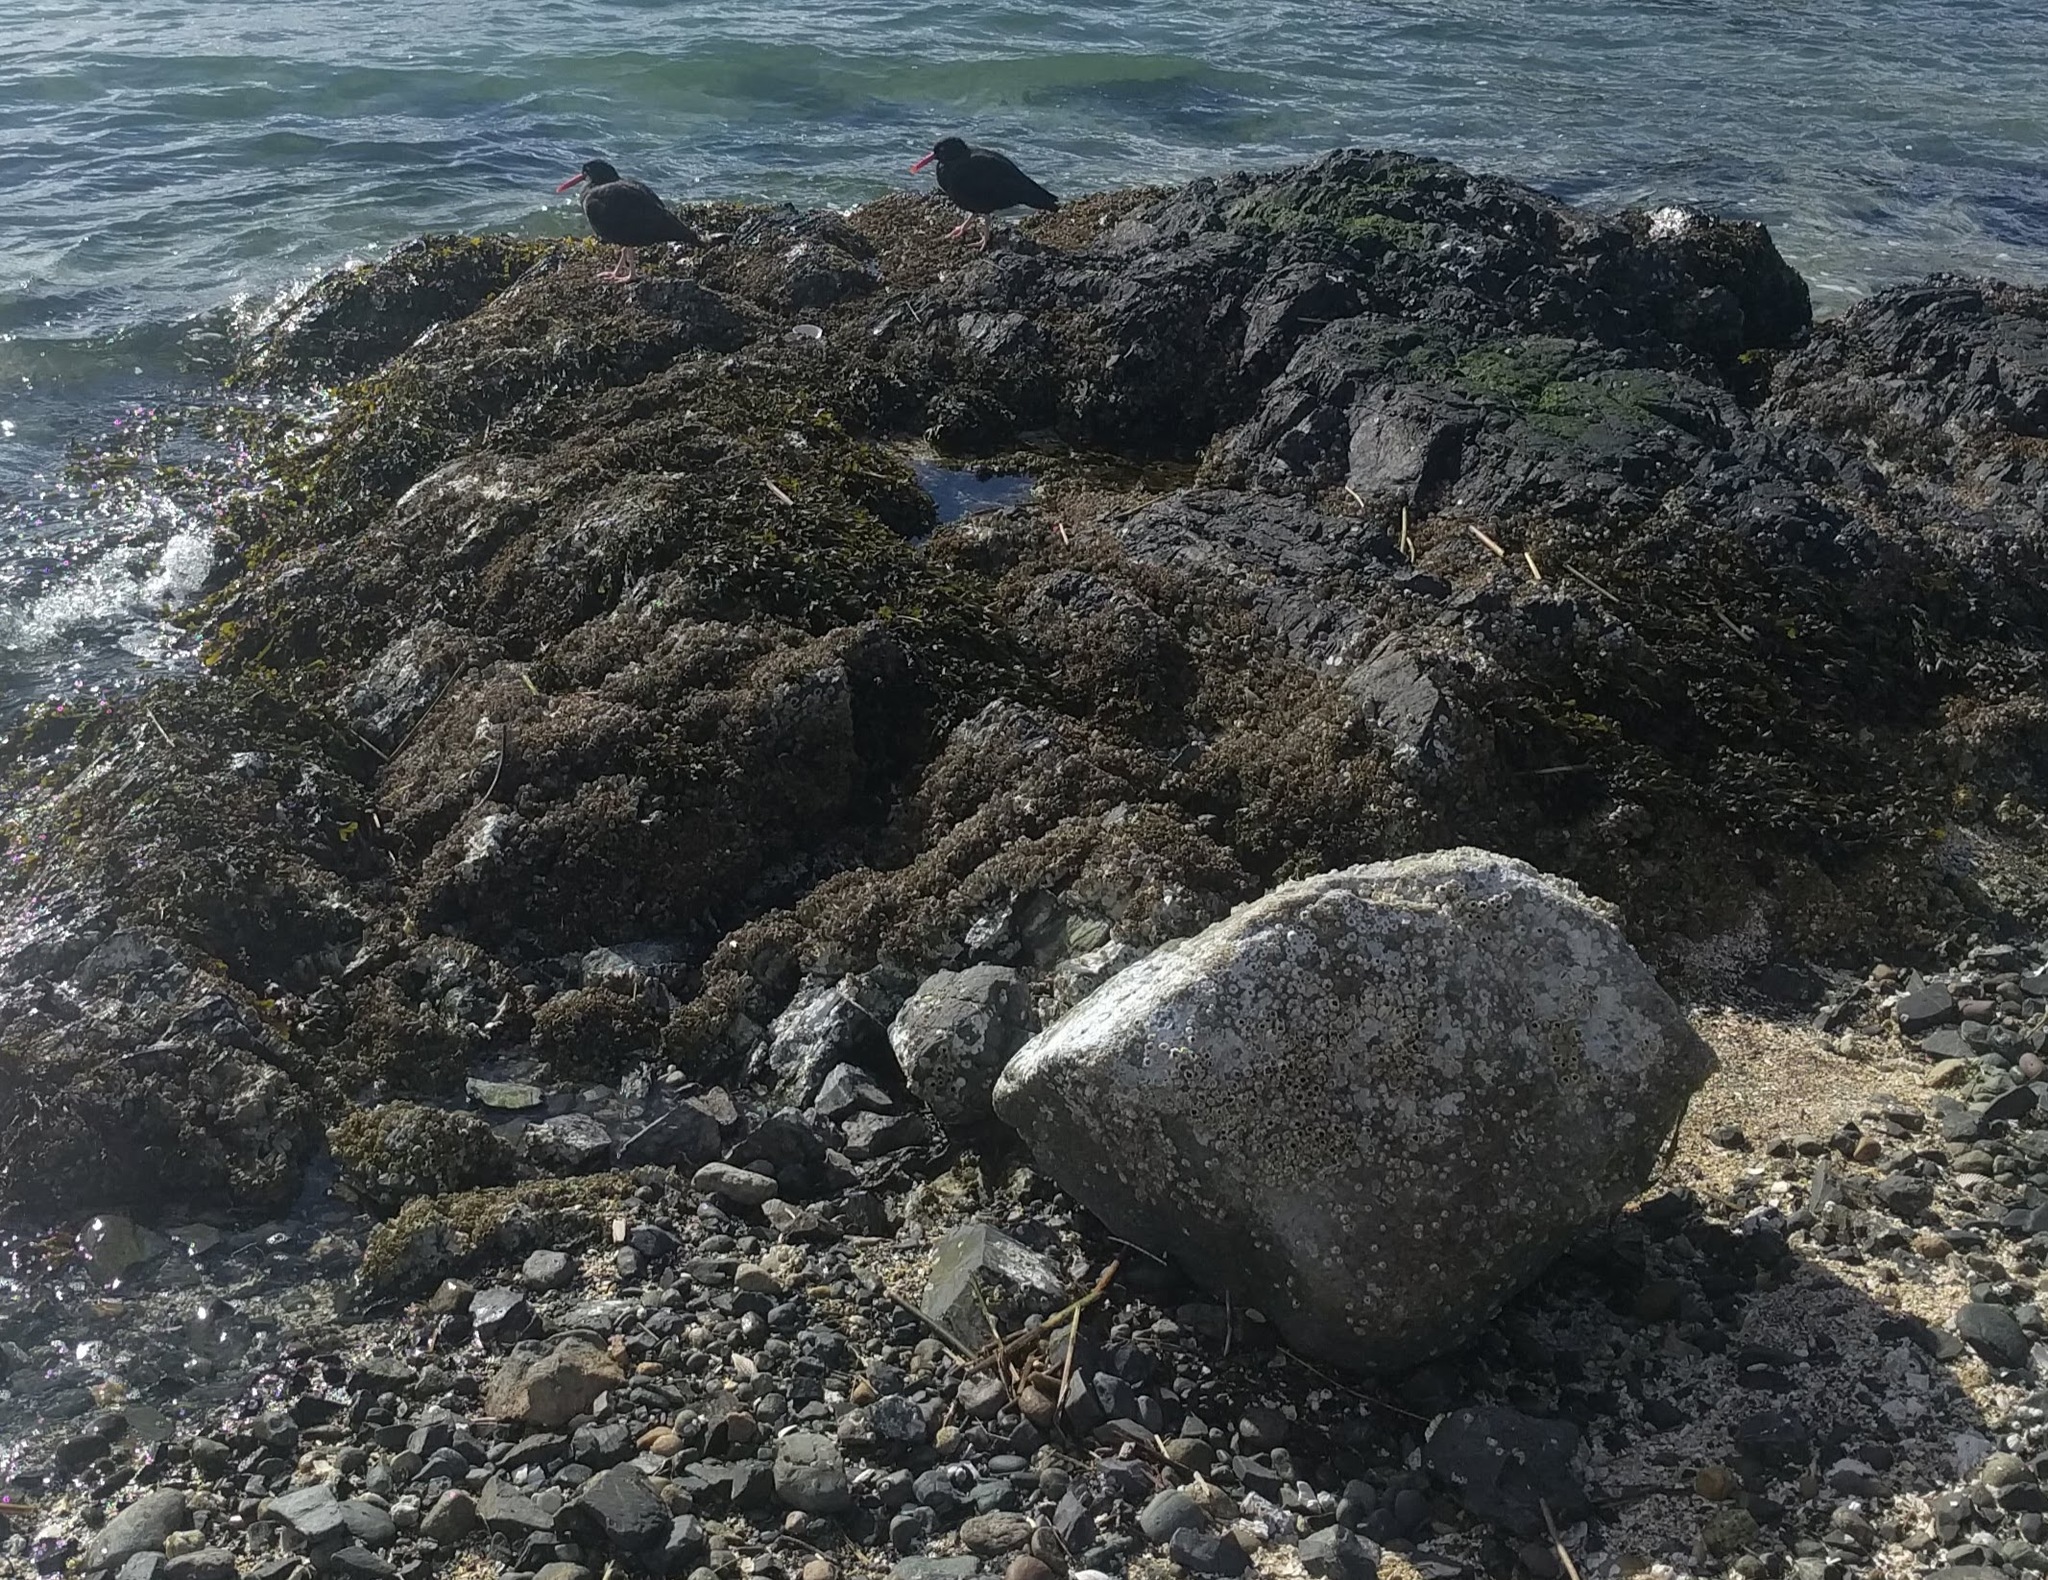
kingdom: Animalia
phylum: Chordata
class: Aves
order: Charadriiformes
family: Haematopodidae
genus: Haematopus
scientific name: Haematopus bachmani
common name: Black oystercatcher
